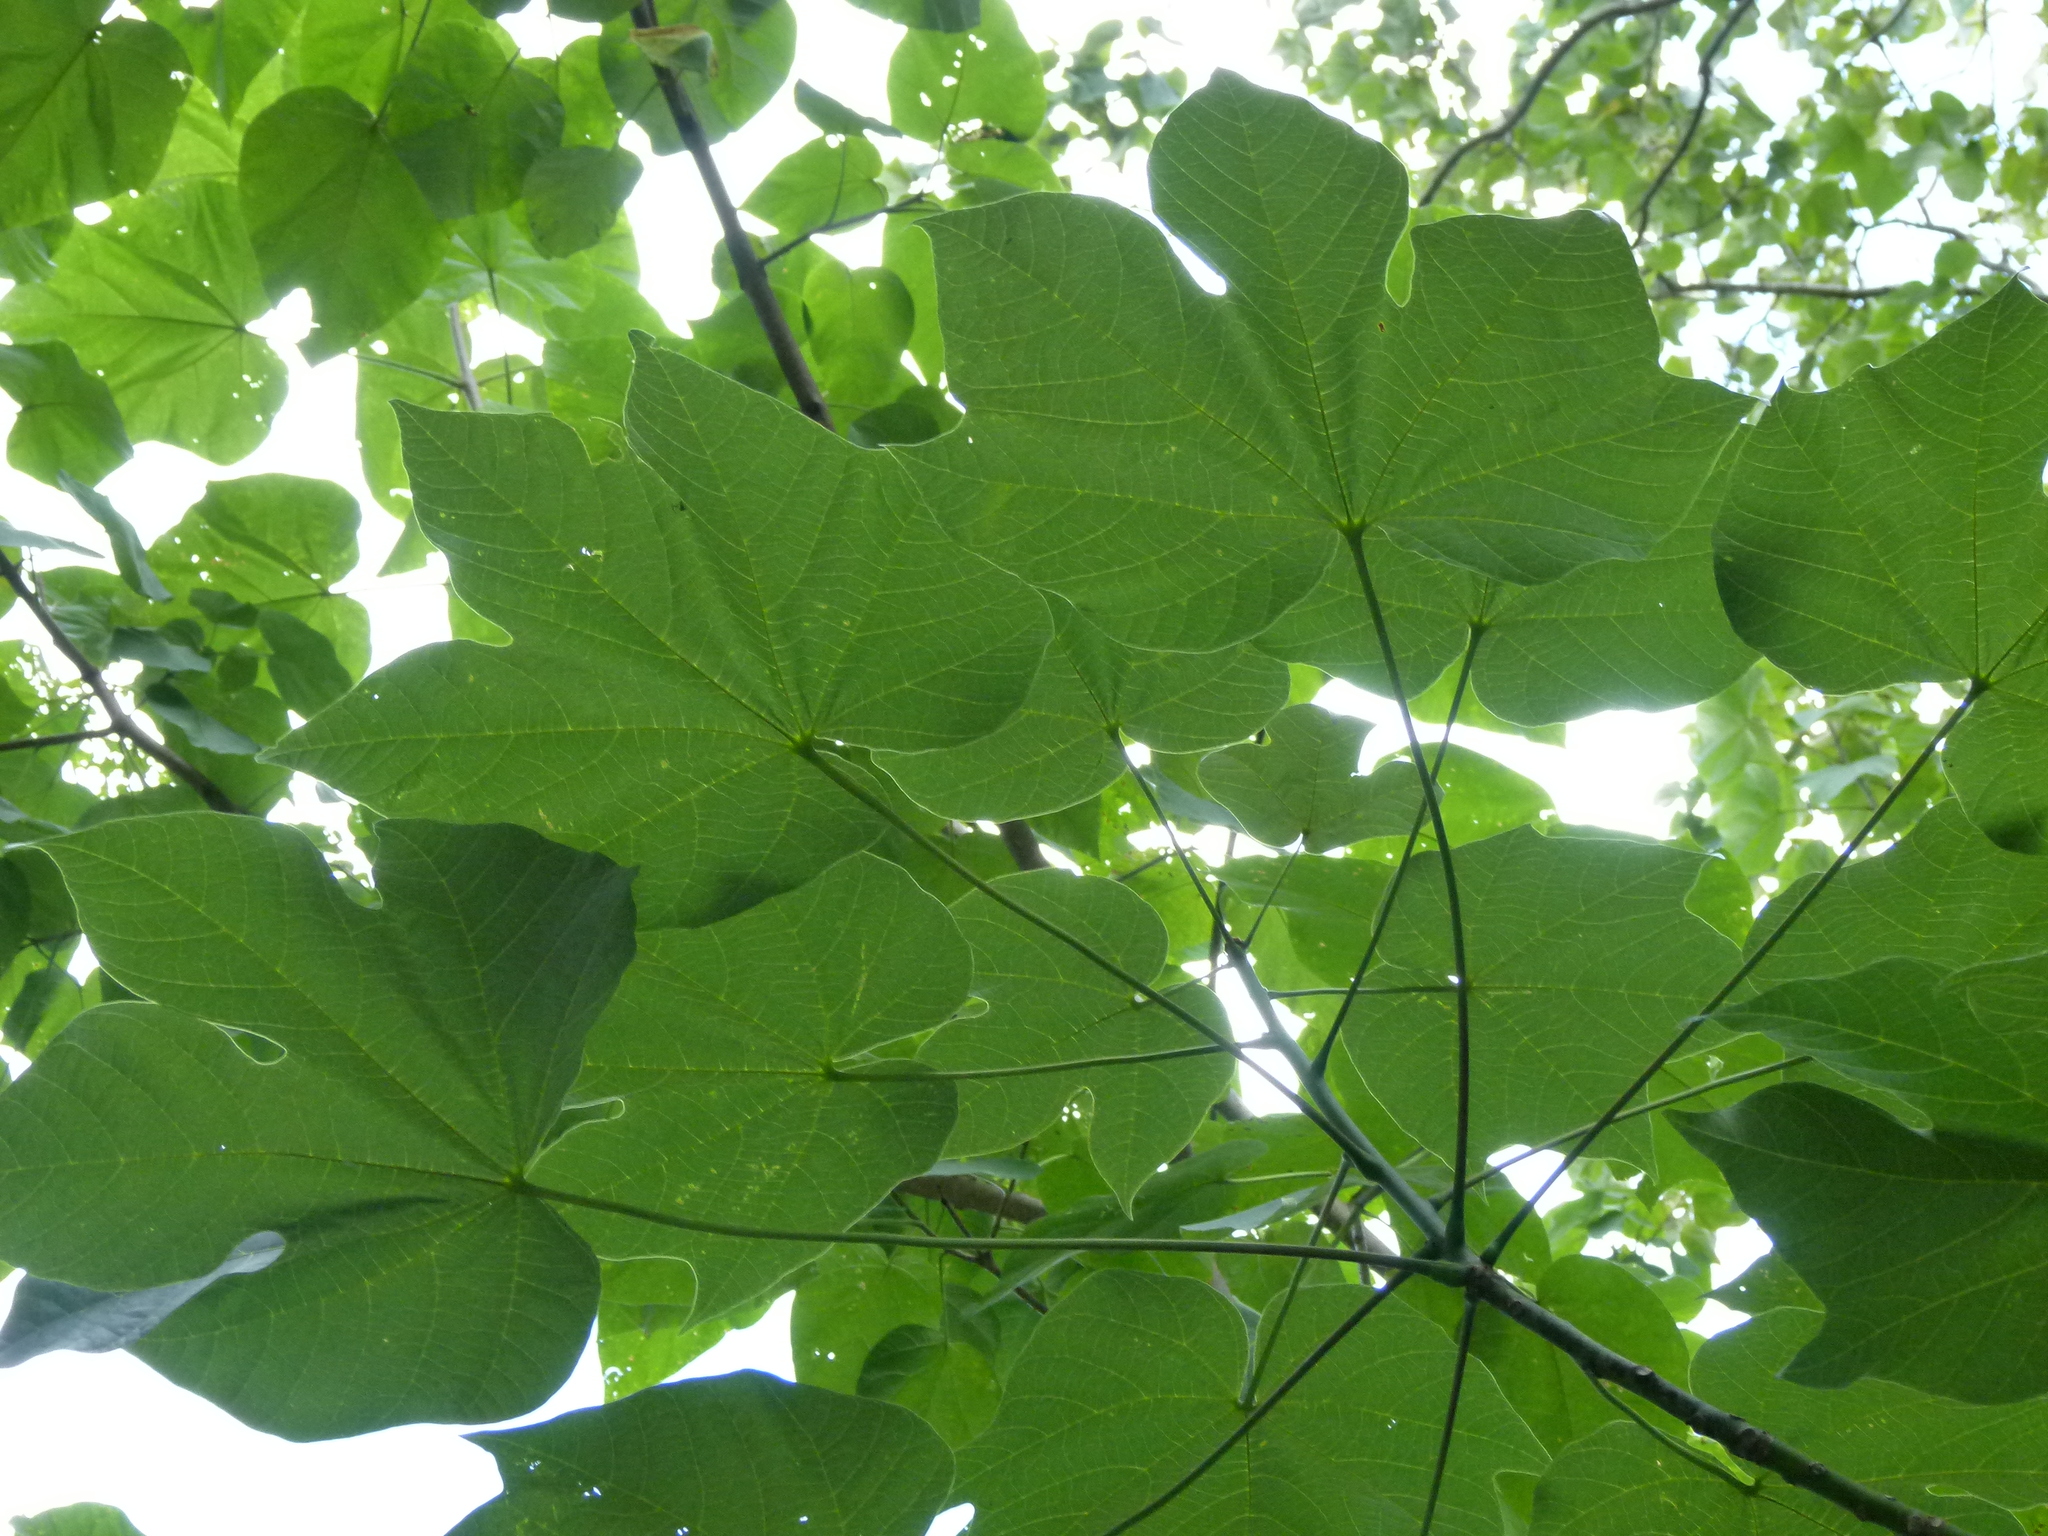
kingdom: Plantae
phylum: Tracheophyta
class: Magnoliopsida
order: Malvales
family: Malvaceae
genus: Firmiana
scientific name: Firmiana simplex
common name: Chinese parasoltree
